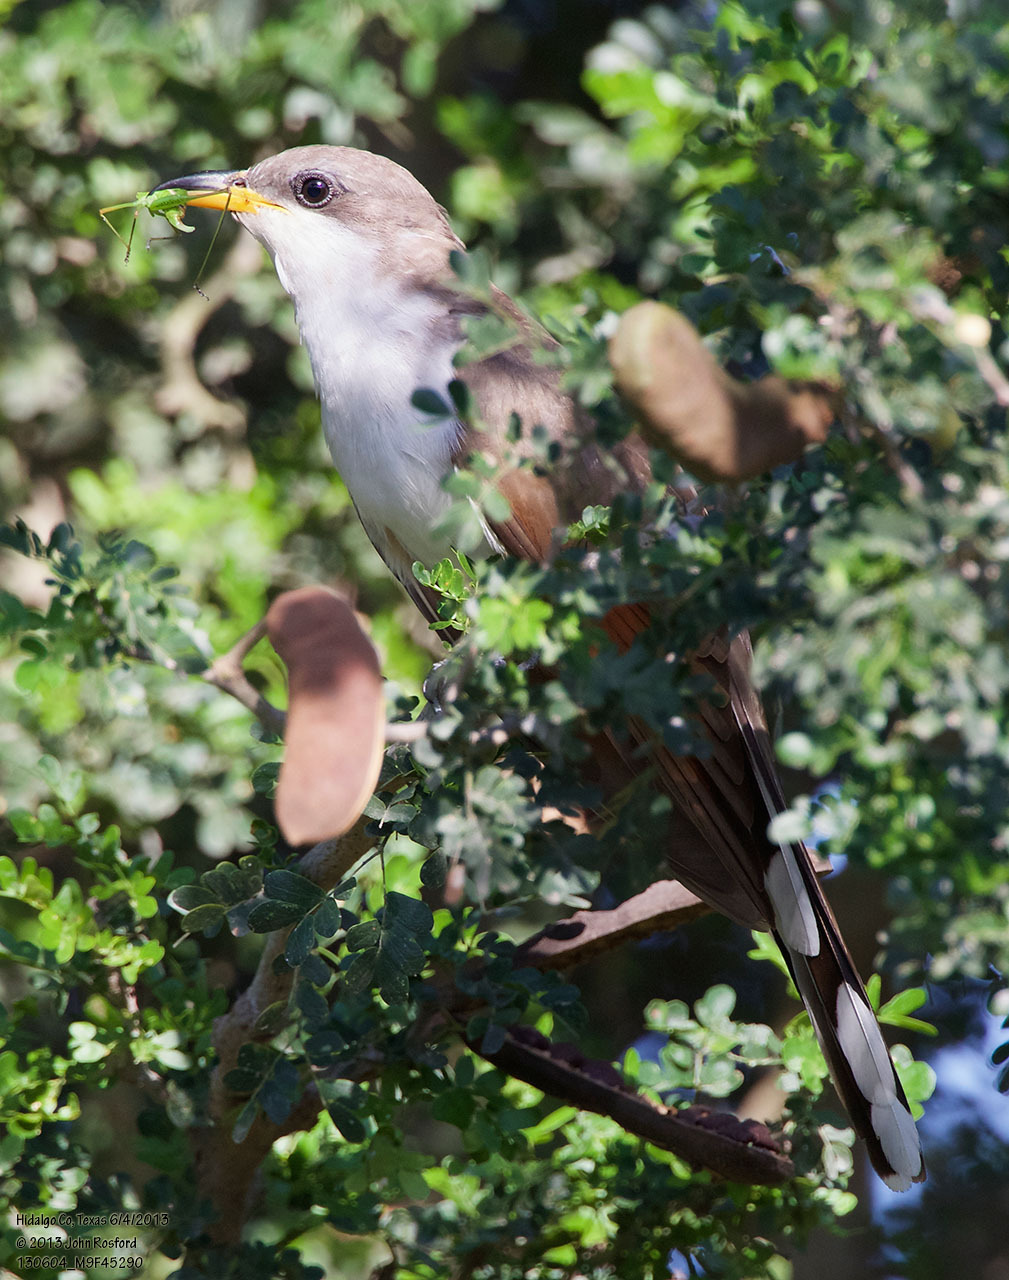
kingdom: Animalia
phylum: Chordata
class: Aves
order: Cuculiformes
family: Cuculidae
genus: Coccyzus
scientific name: Coccyzus americanus
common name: Yellow-billed cuckoo
